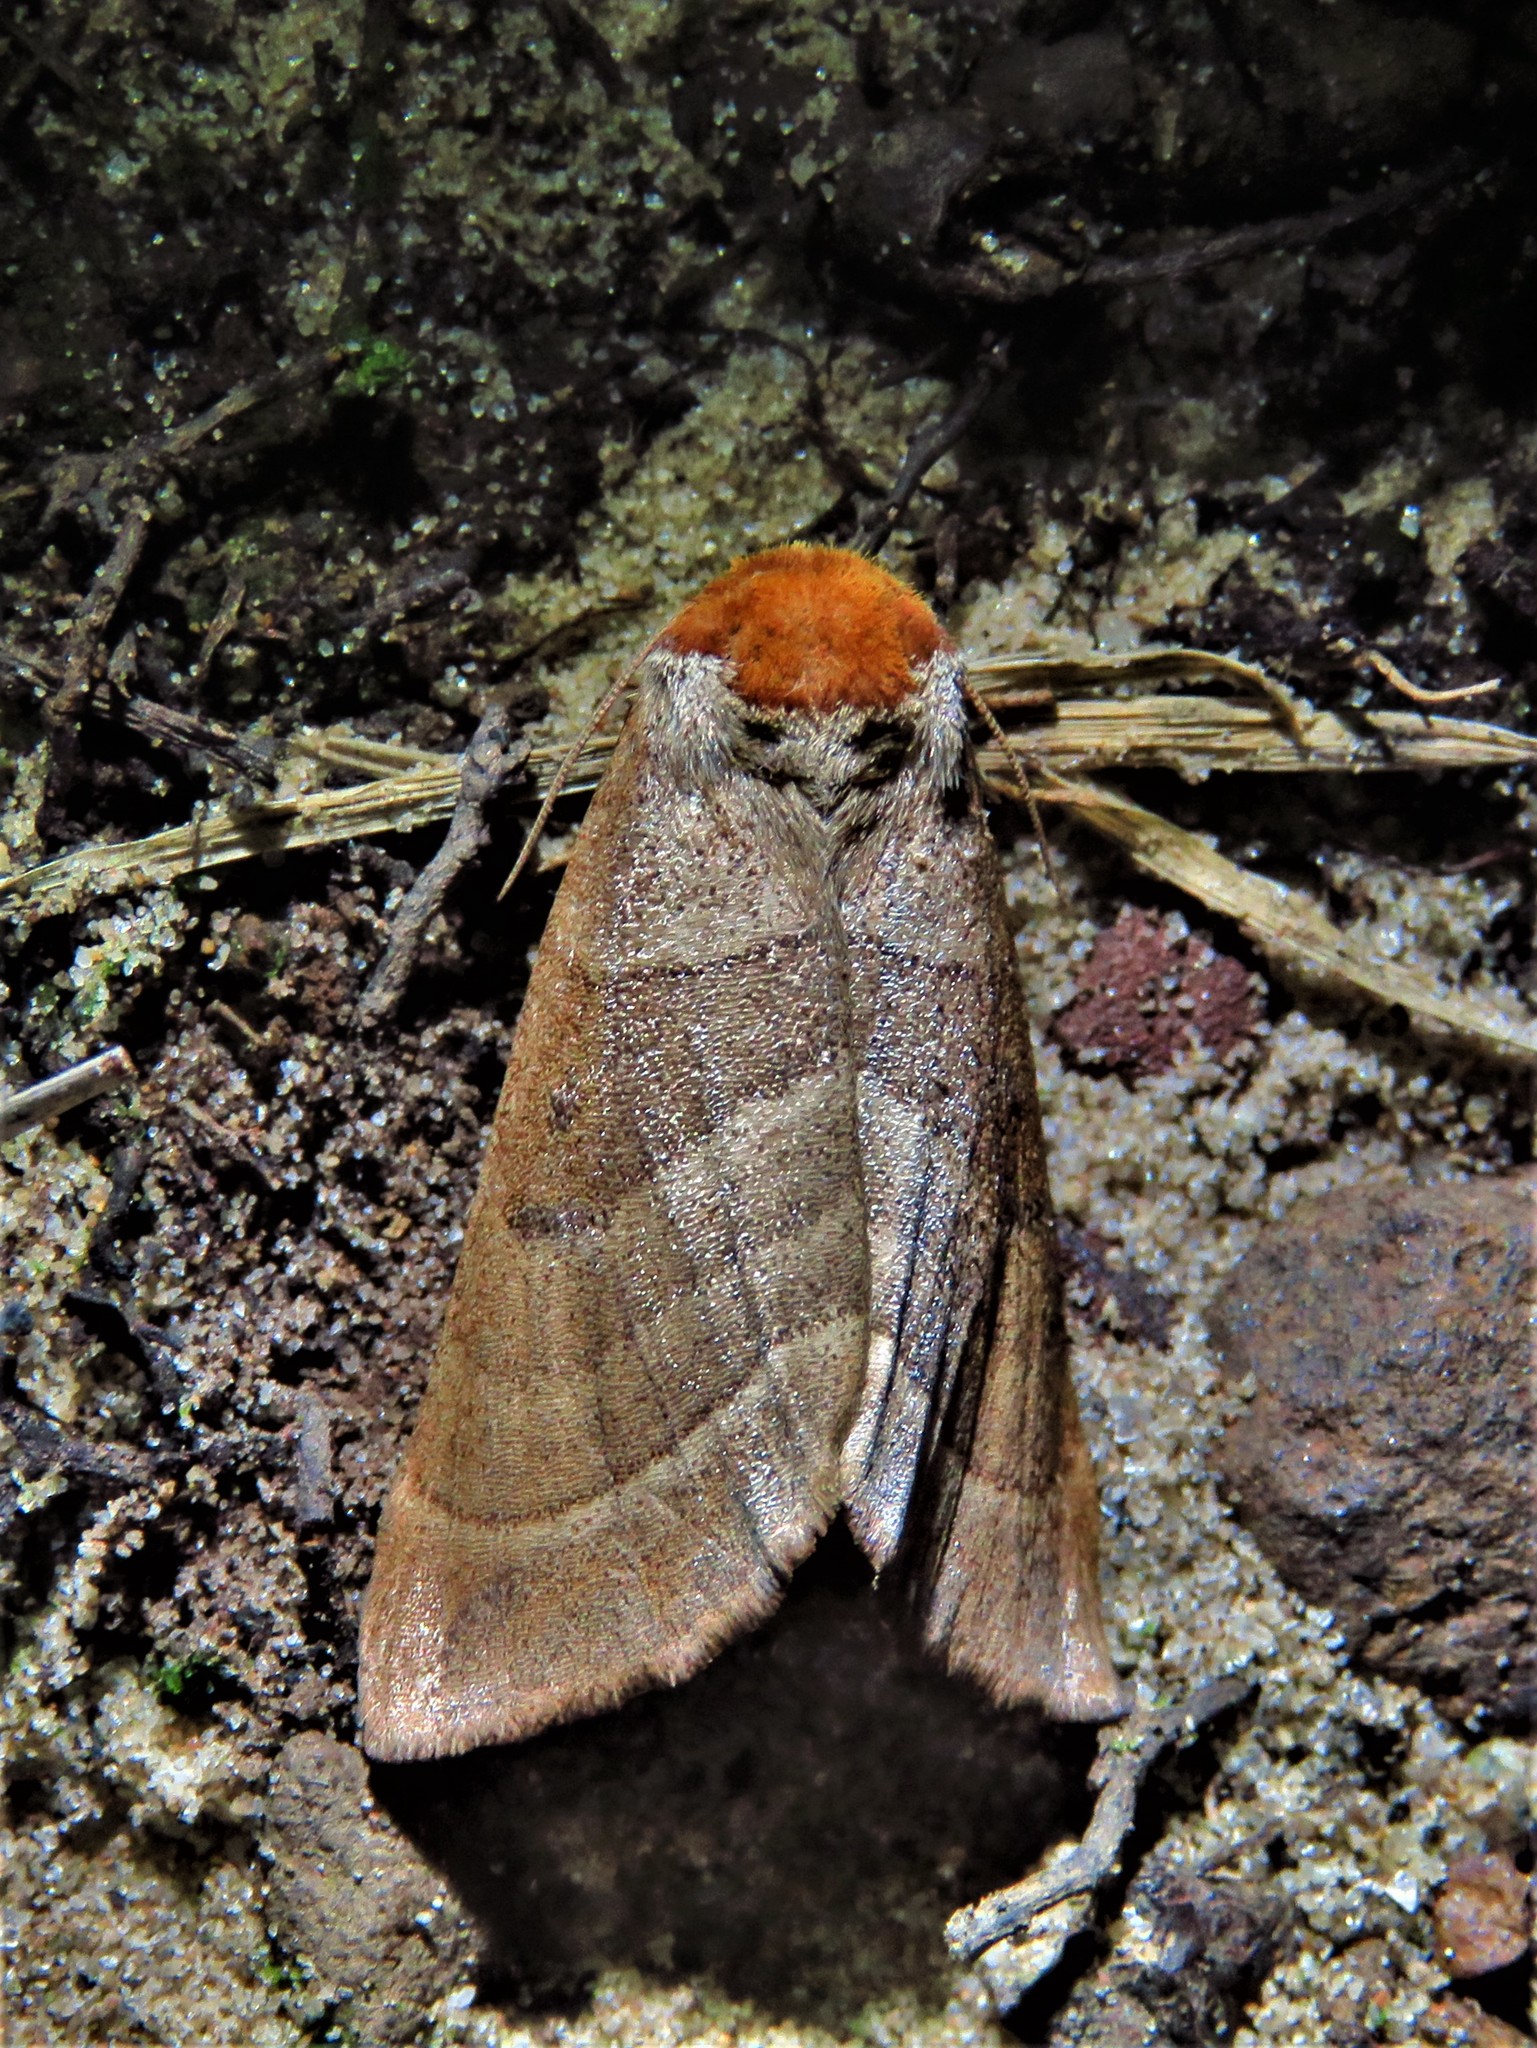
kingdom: Animalia
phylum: Arthropoda
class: Insecta
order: Lepidoptera
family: Notodontidae
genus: Datana
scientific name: Datana integerrima
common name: Walnut caterpillar
